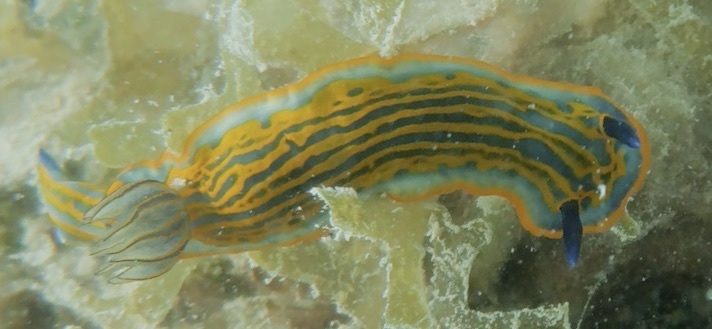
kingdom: Animalia
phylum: Mollusca
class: Gastropoda
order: Nudibranchia
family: Chromodorididae
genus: Felimare
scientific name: Felimare zebra
